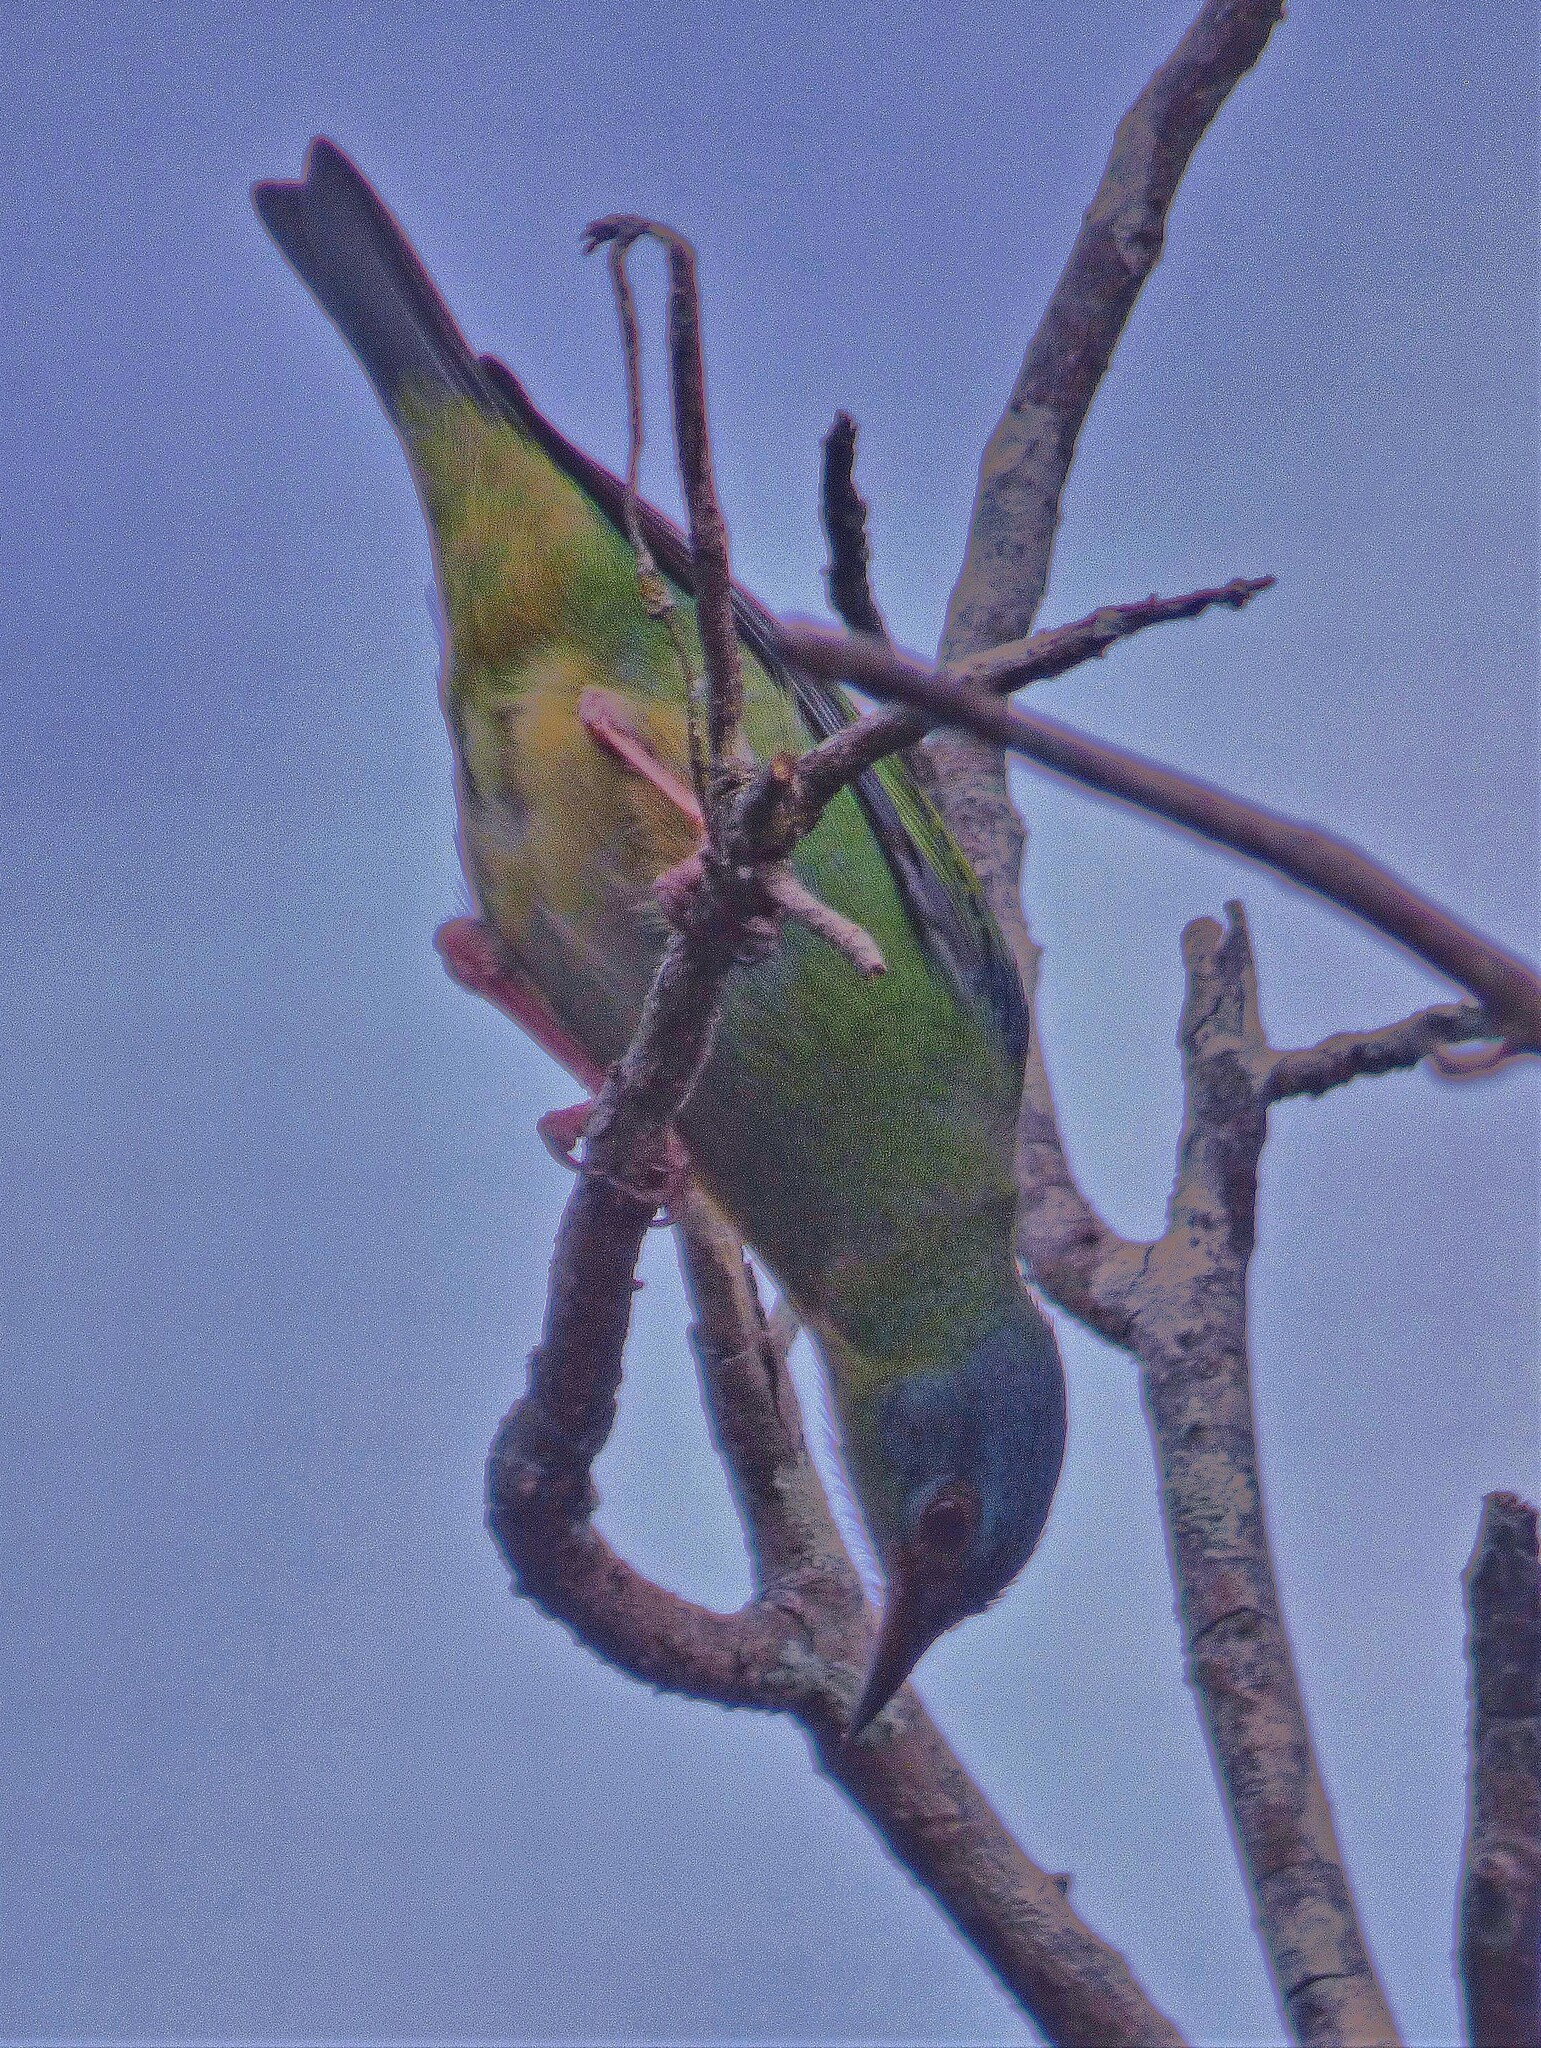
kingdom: Animalia
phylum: Chordata
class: Aves
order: Passeriformes
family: Thraupidae
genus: Dacnis
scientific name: Dacnis cayana
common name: Blue dacnis
